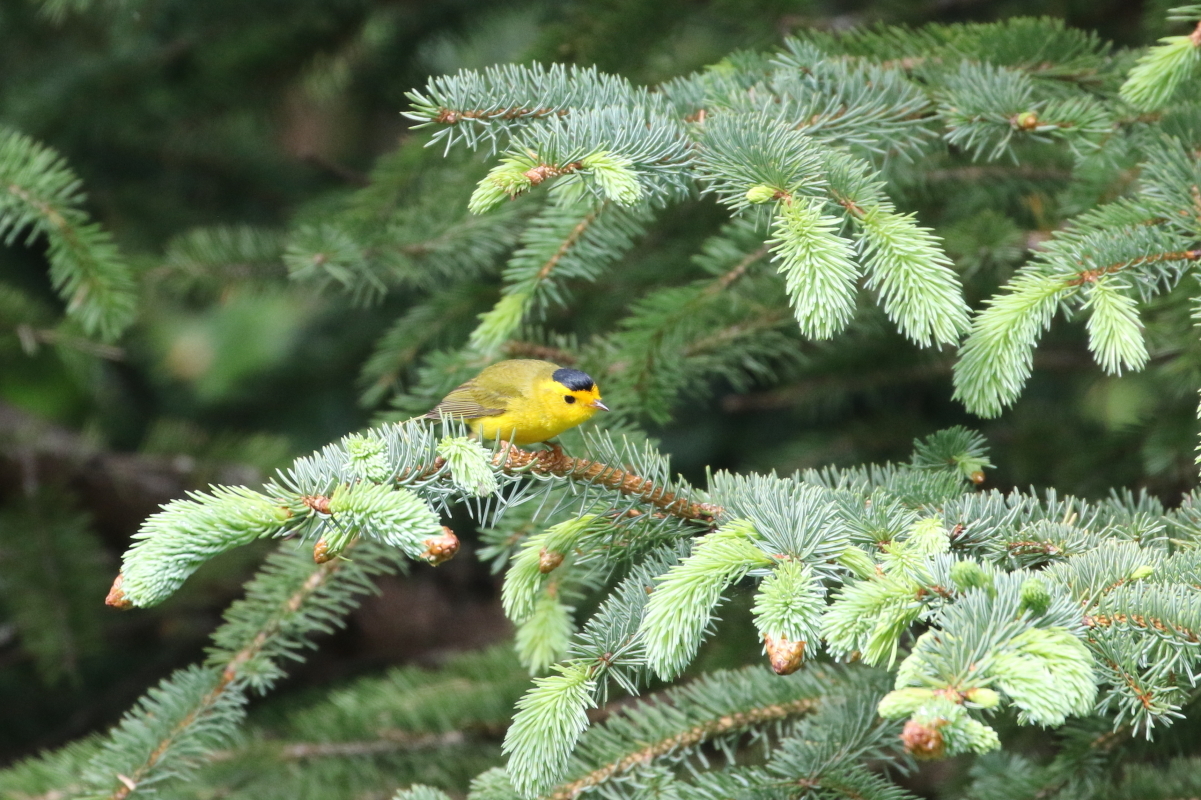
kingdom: Animalia
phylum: Chordata
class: Aves
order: Passeriformes
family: Parulidae
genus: Cardellina
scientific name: Cardellina pusilla
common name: Wilson's warbler
